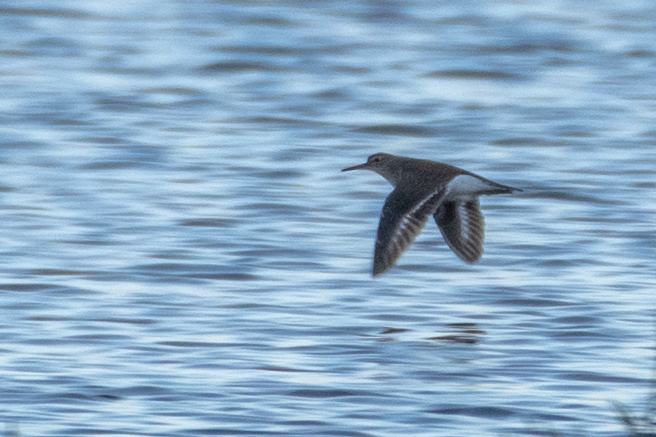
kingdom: Animalia
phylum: Chordata
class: Aves
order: Charadriiformes
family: Scolopacidae
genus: Actitis
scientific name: Actitis hypoleucos
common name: Common sandpiper
